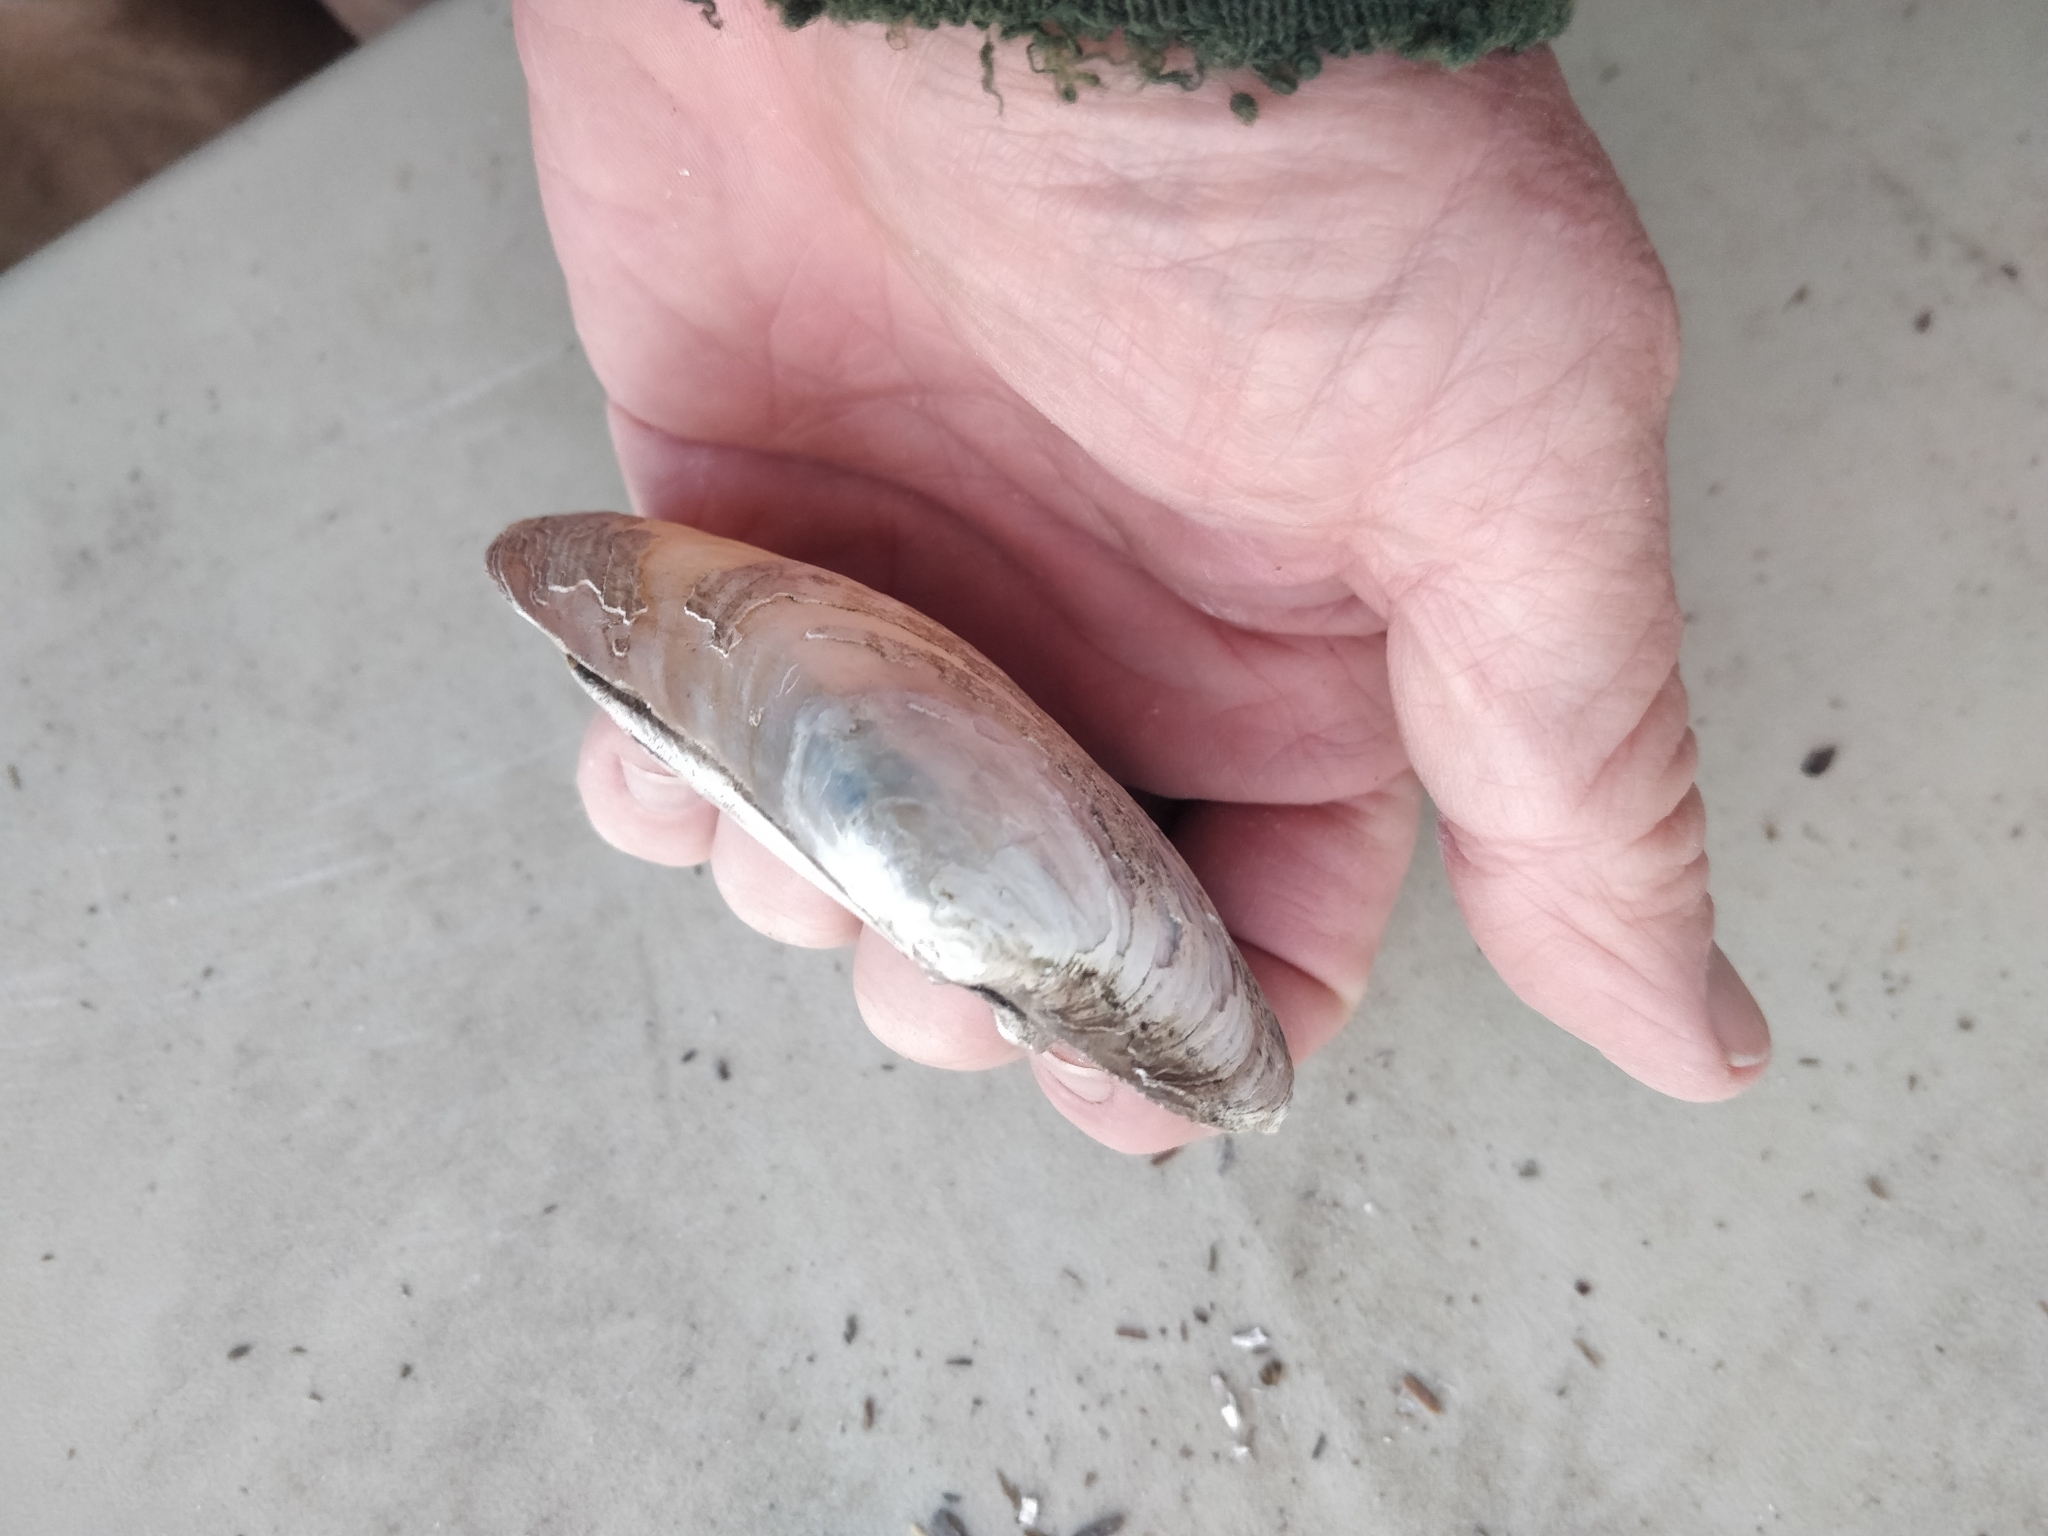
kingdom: Animalia
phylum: Mollusca
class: Bivalvia
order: Unionida
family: Unionidae
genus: Lampsilis
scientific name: Lampsilis cardium
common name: Plain pocketbook
